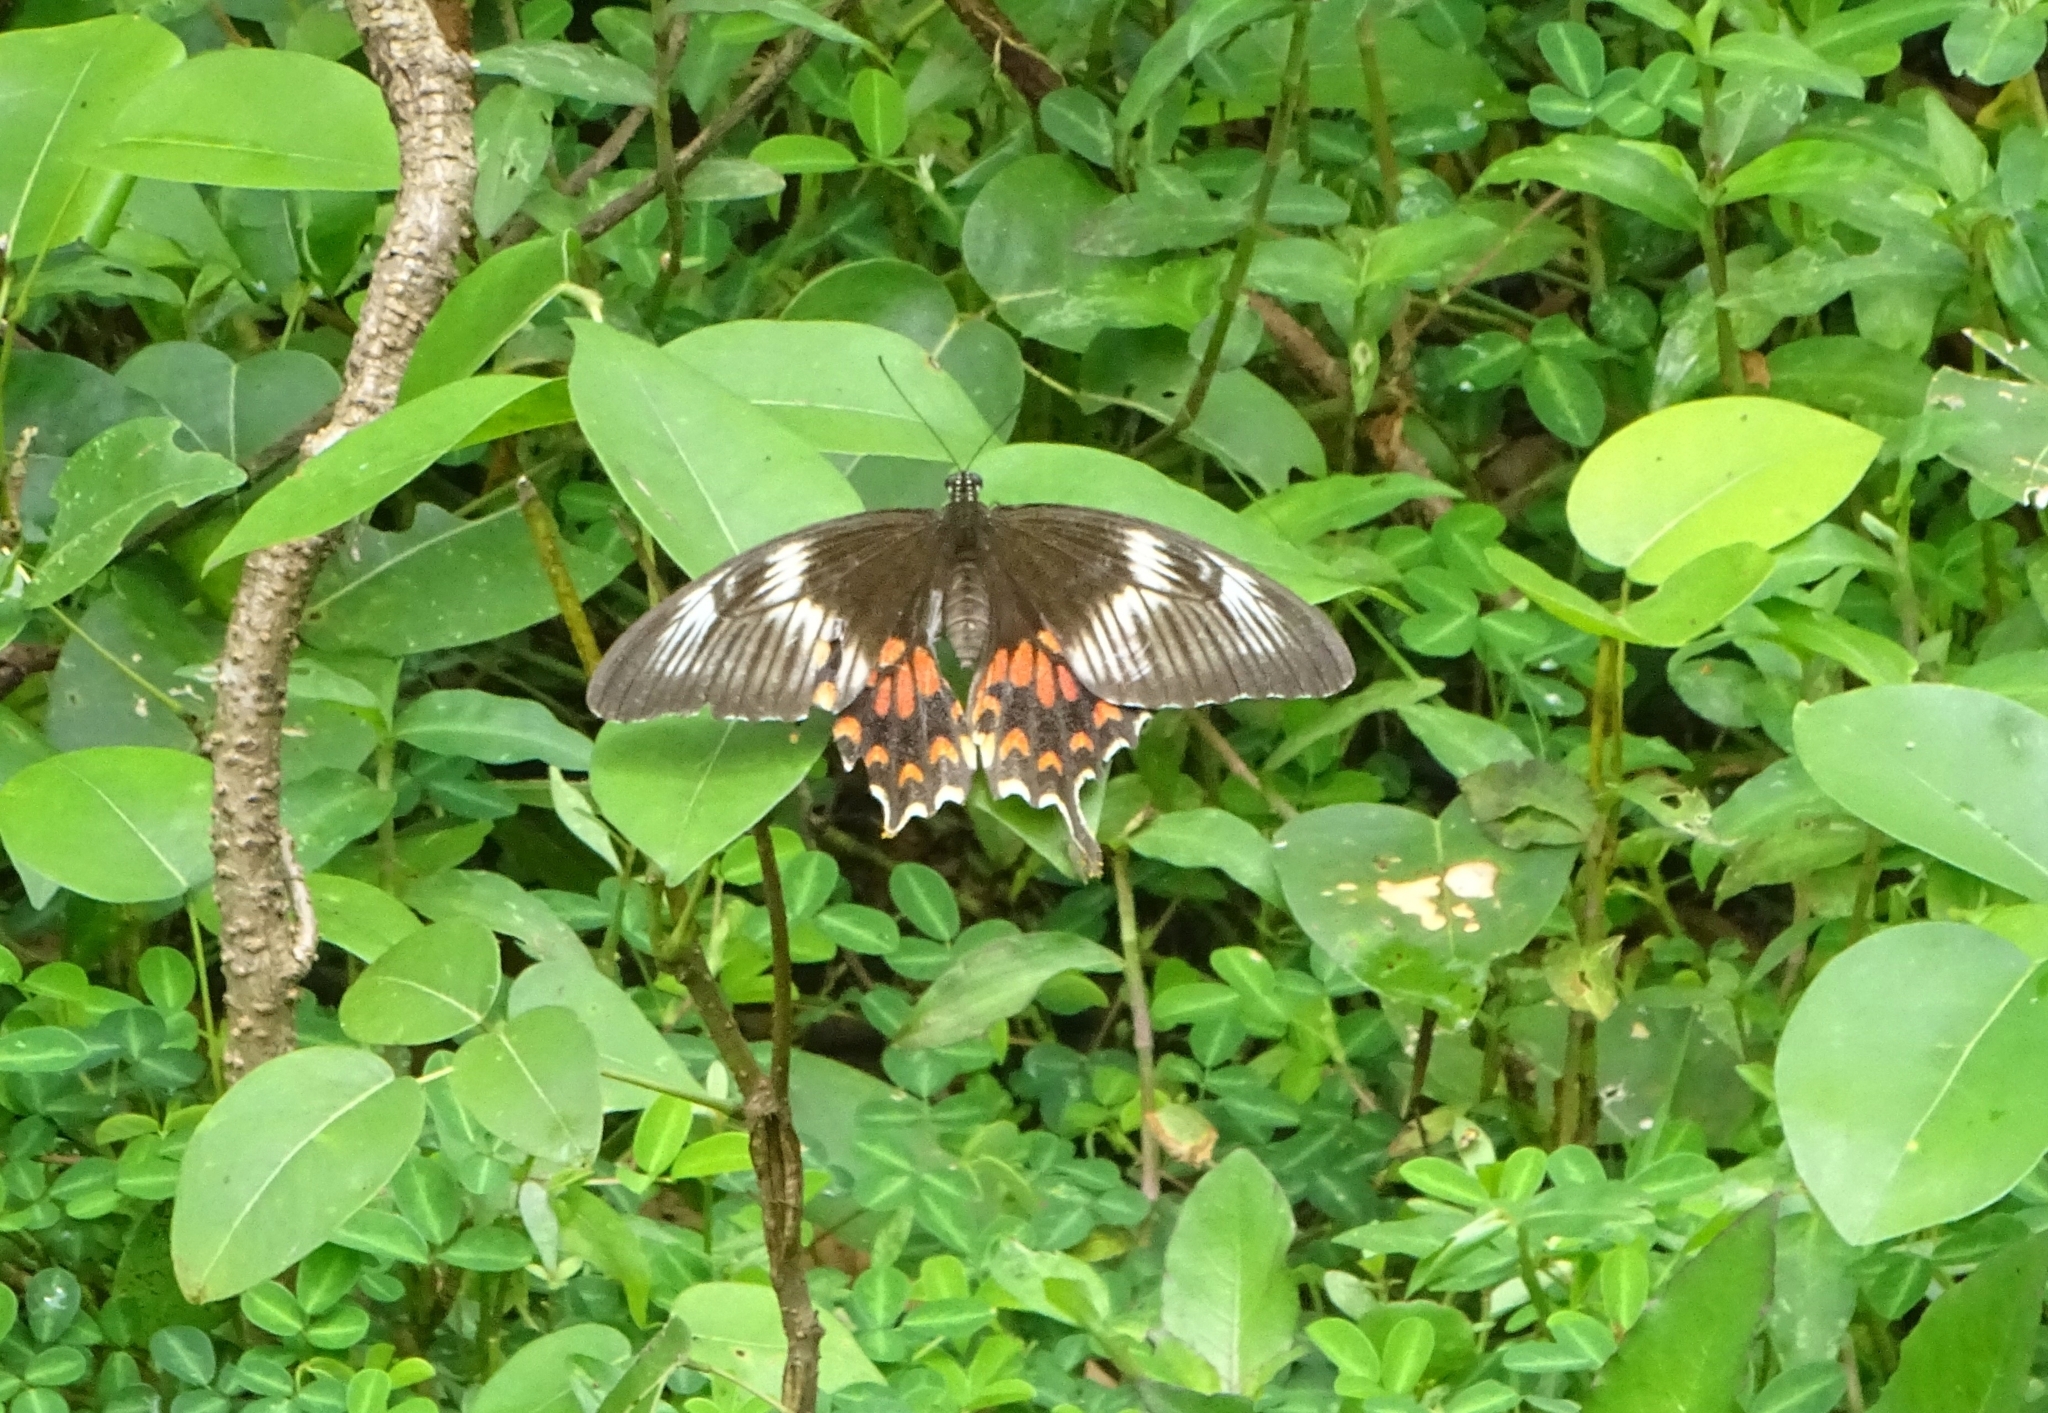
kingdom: Animalia
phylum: Arthropoda
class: Insecta
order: Lepidoptera
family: Papilionidae
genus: Papilio
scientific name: Papilio polytes
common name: Common mormon
